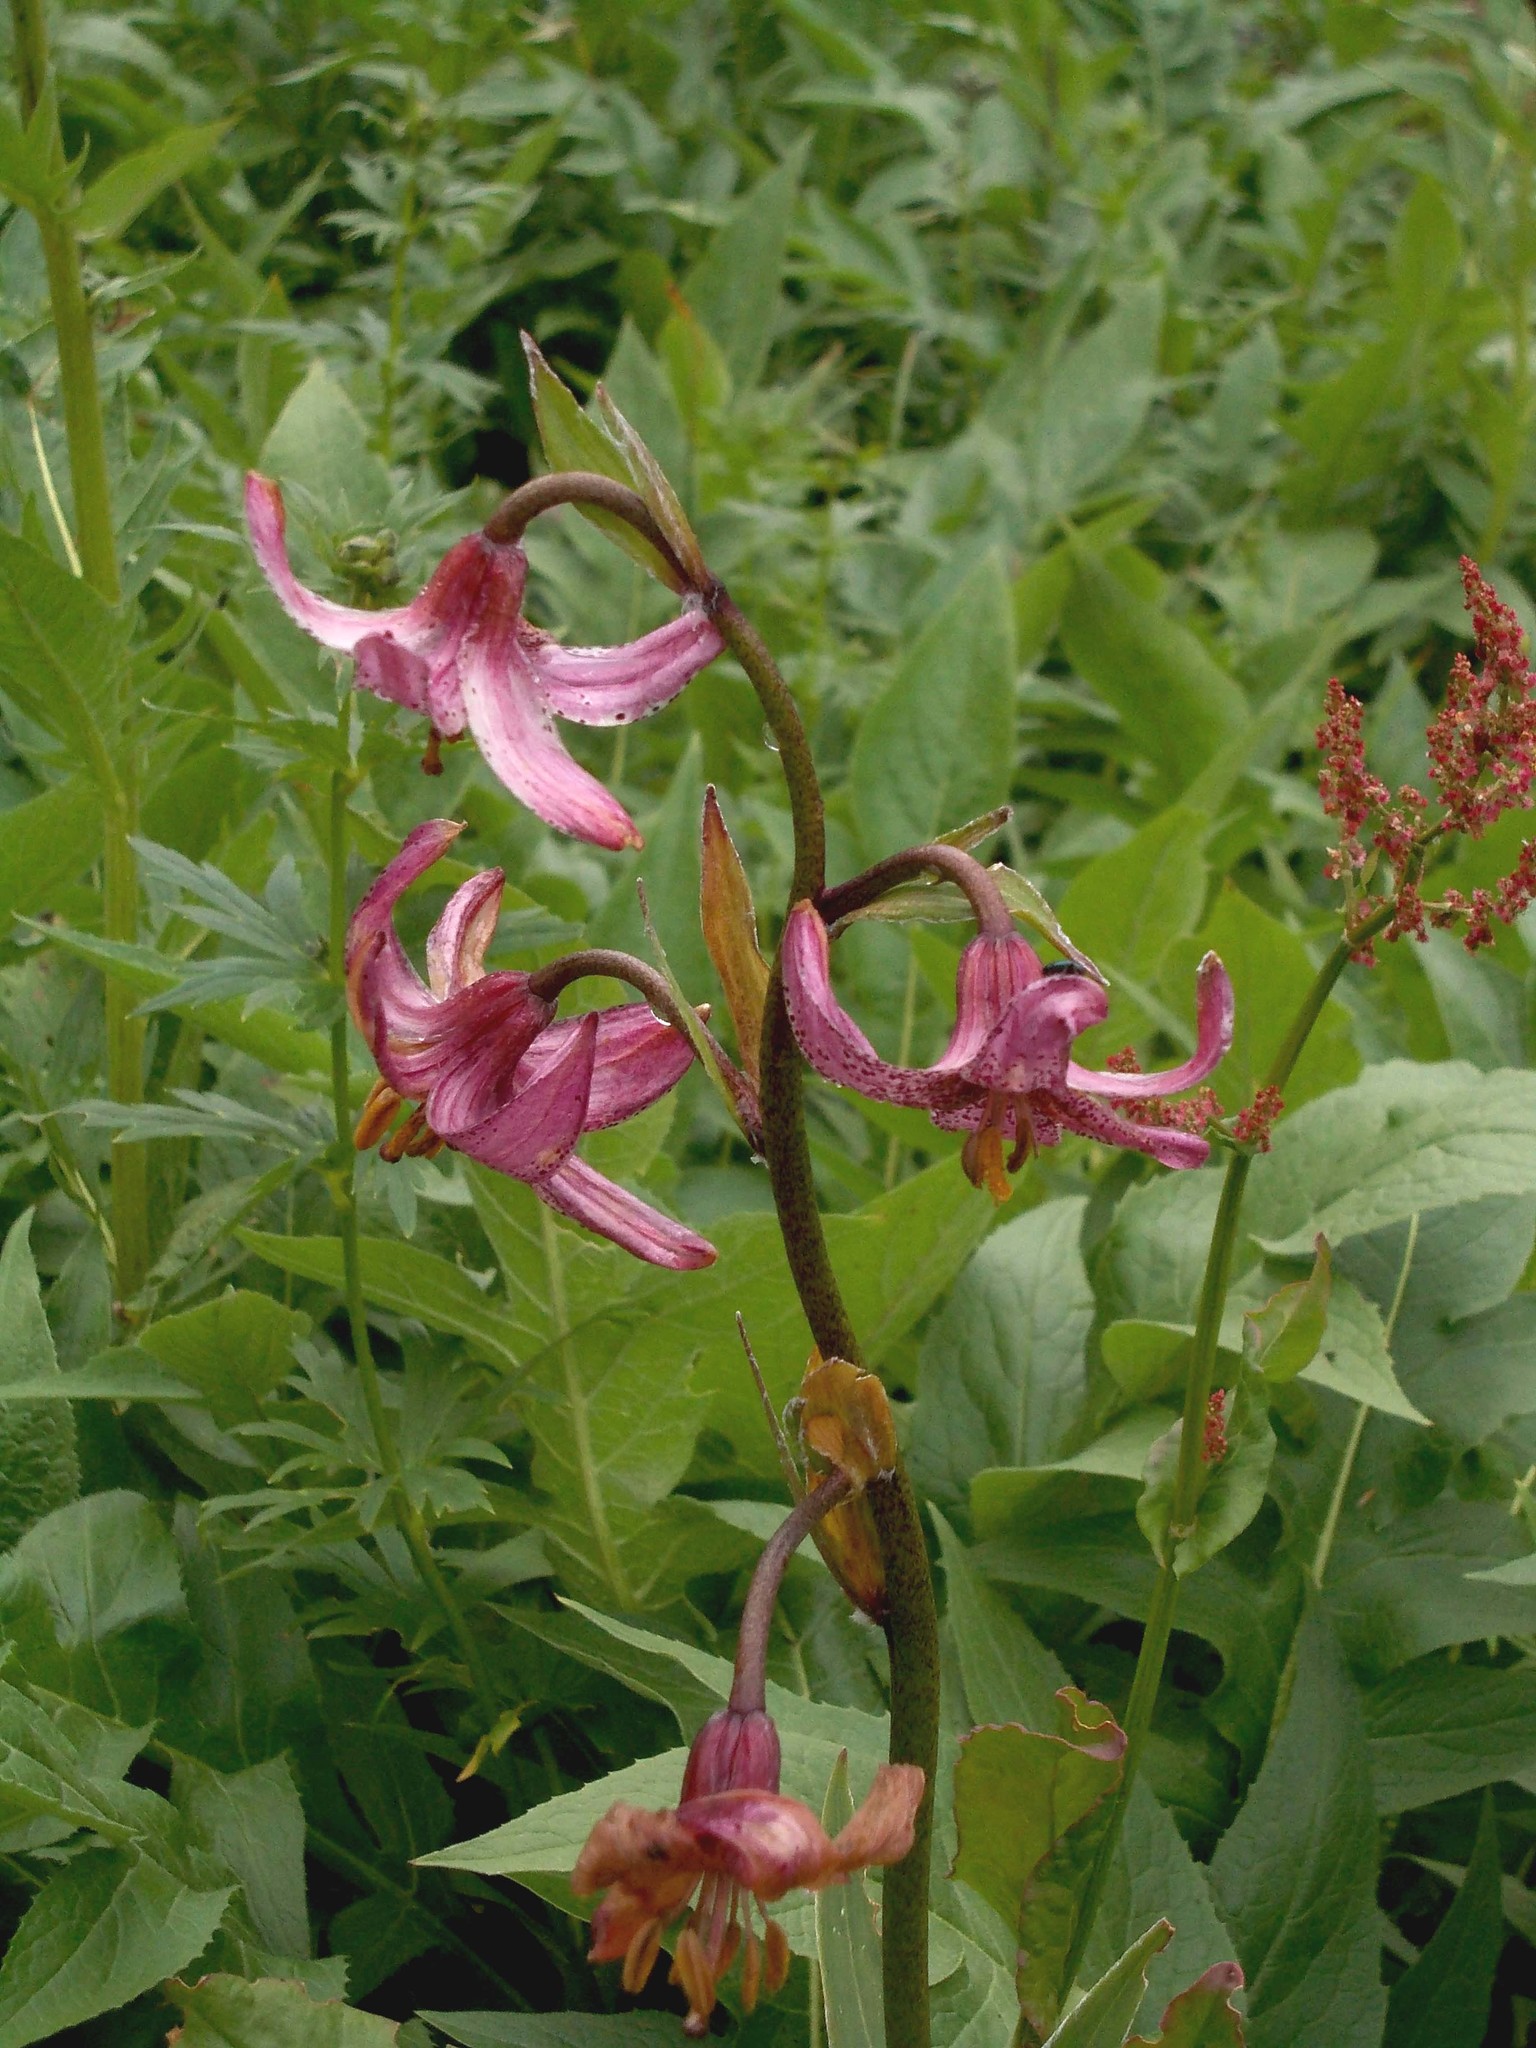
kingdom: Plantae
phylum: Tracheophyta
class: Liliopsida
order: Liliales
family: Liliaceae
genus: Lilium
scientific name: Lilium martagon
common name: Martagon lily
